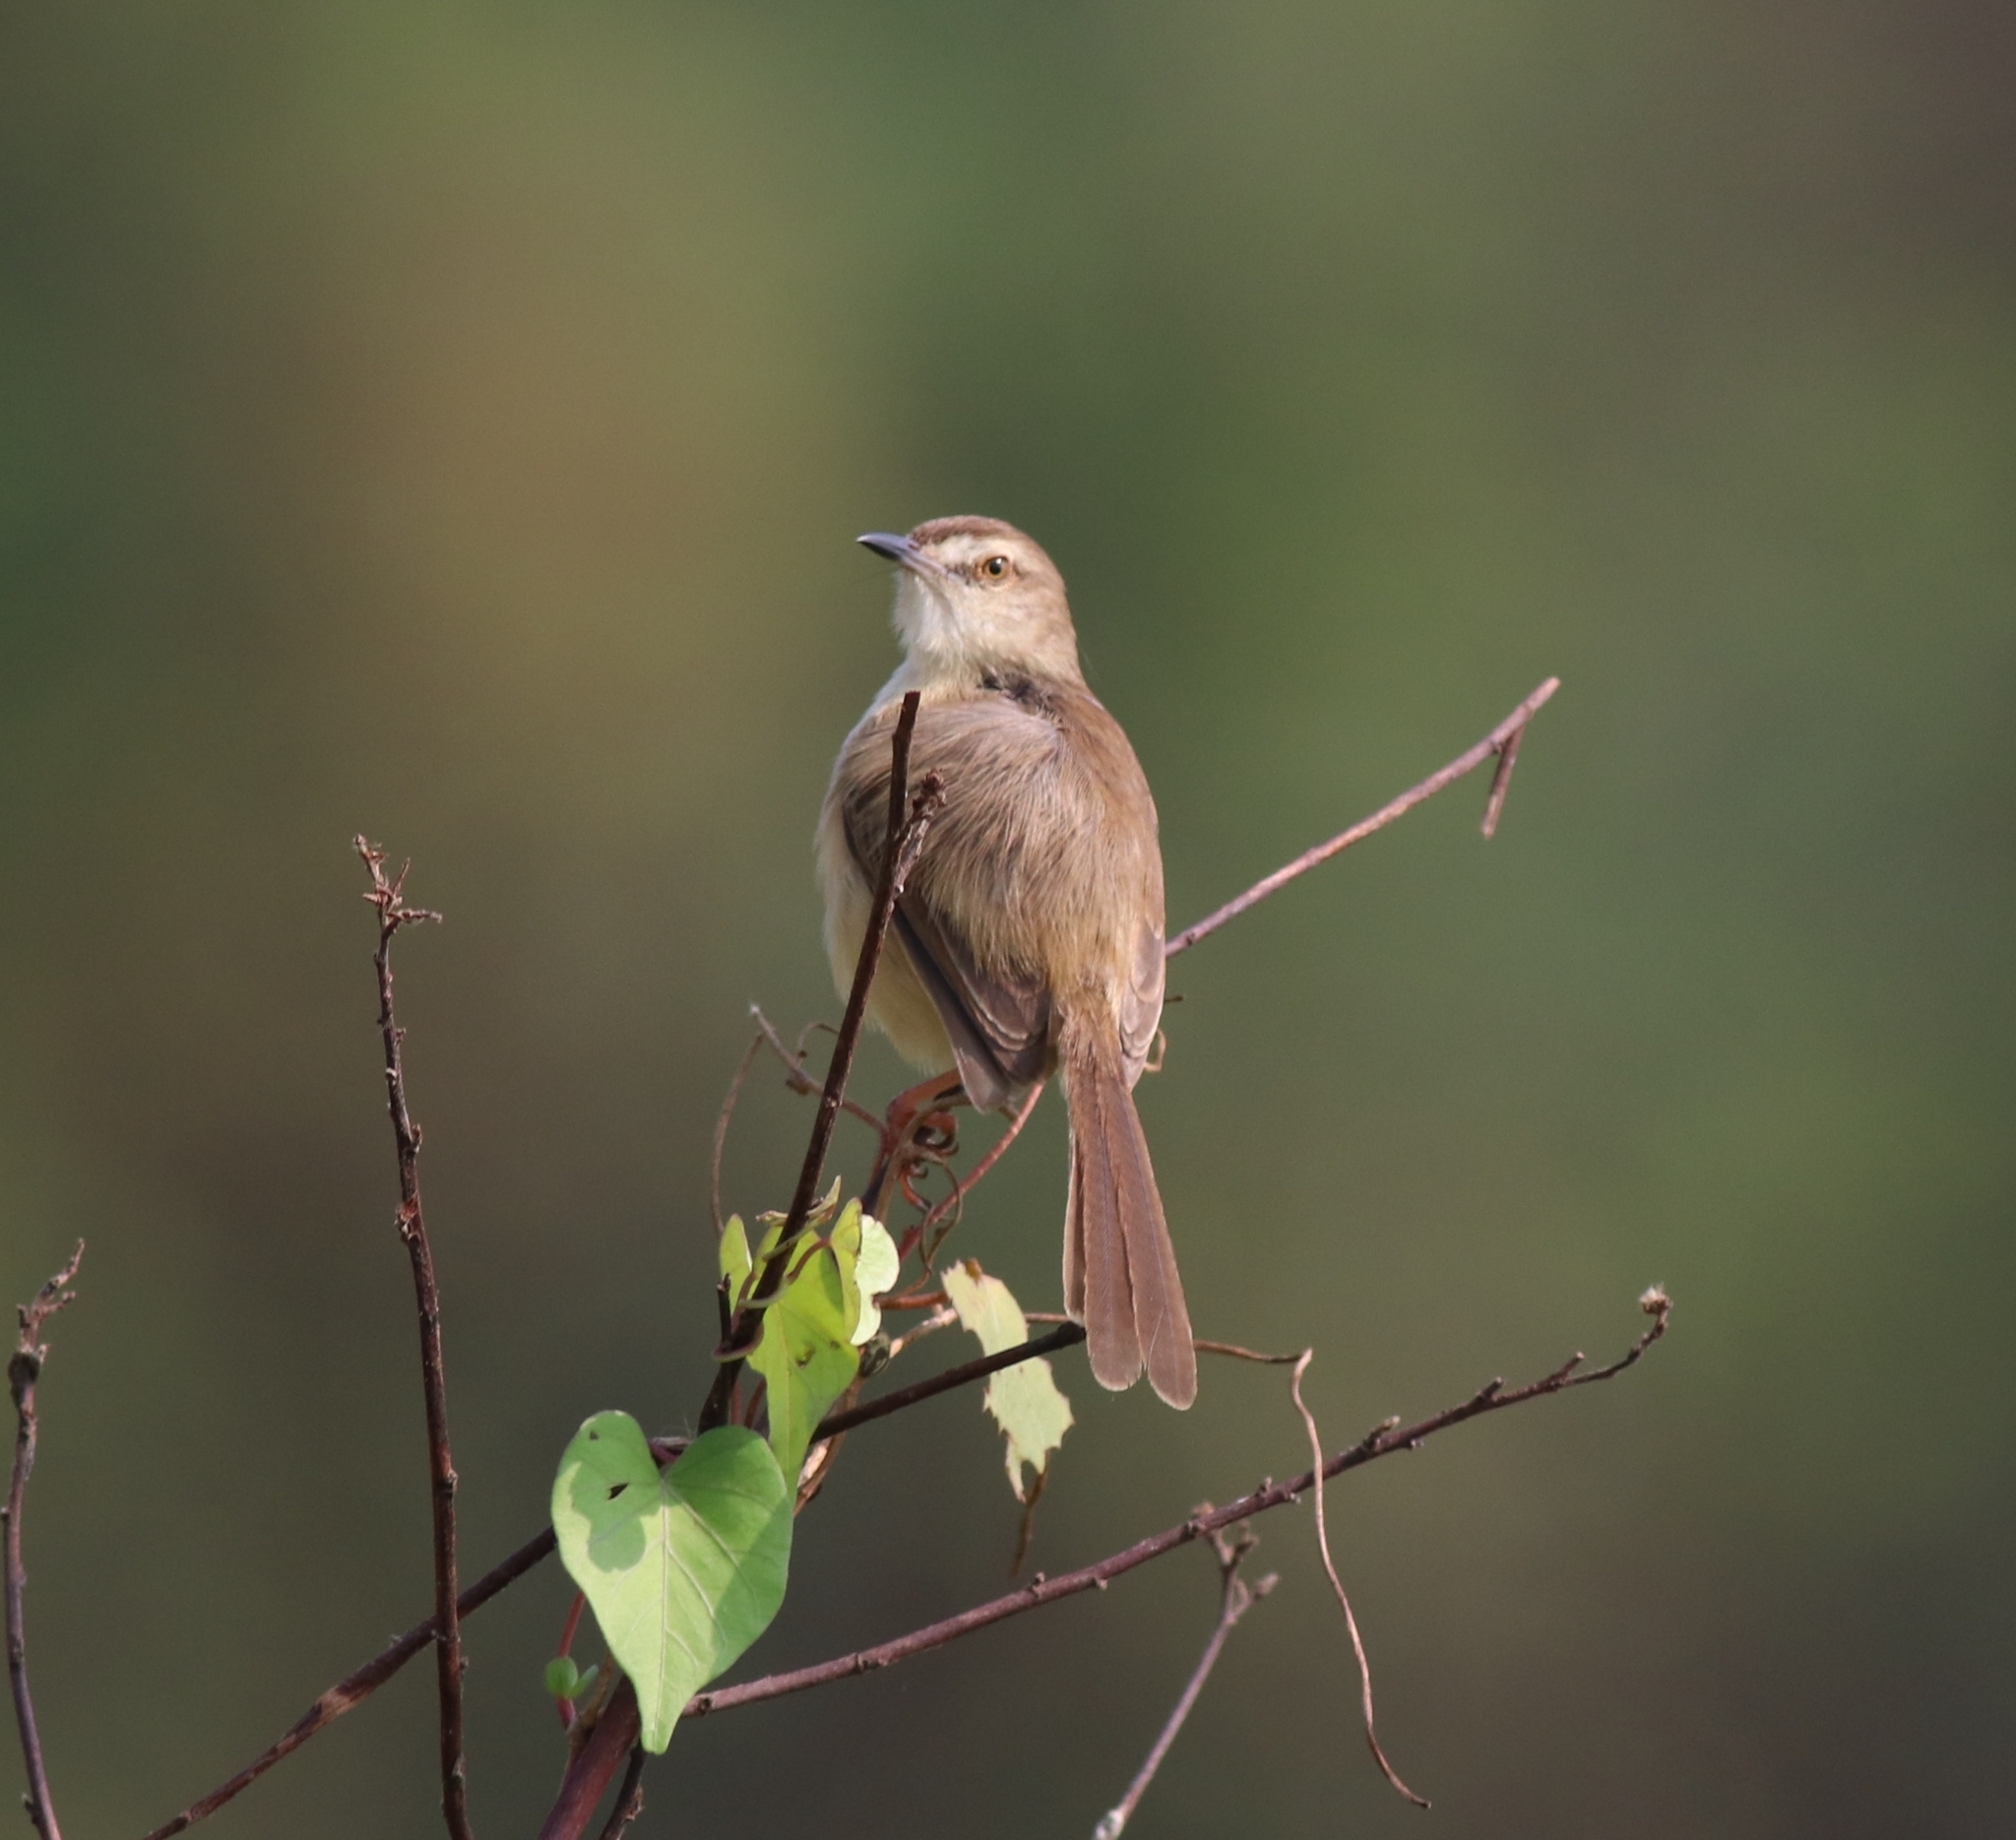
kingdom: Animalia
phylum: Chordata
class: Aves
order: Passeriformes
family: Cisticolidae
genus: Prinia
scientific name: Prinia inornata
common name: Plain prinia
